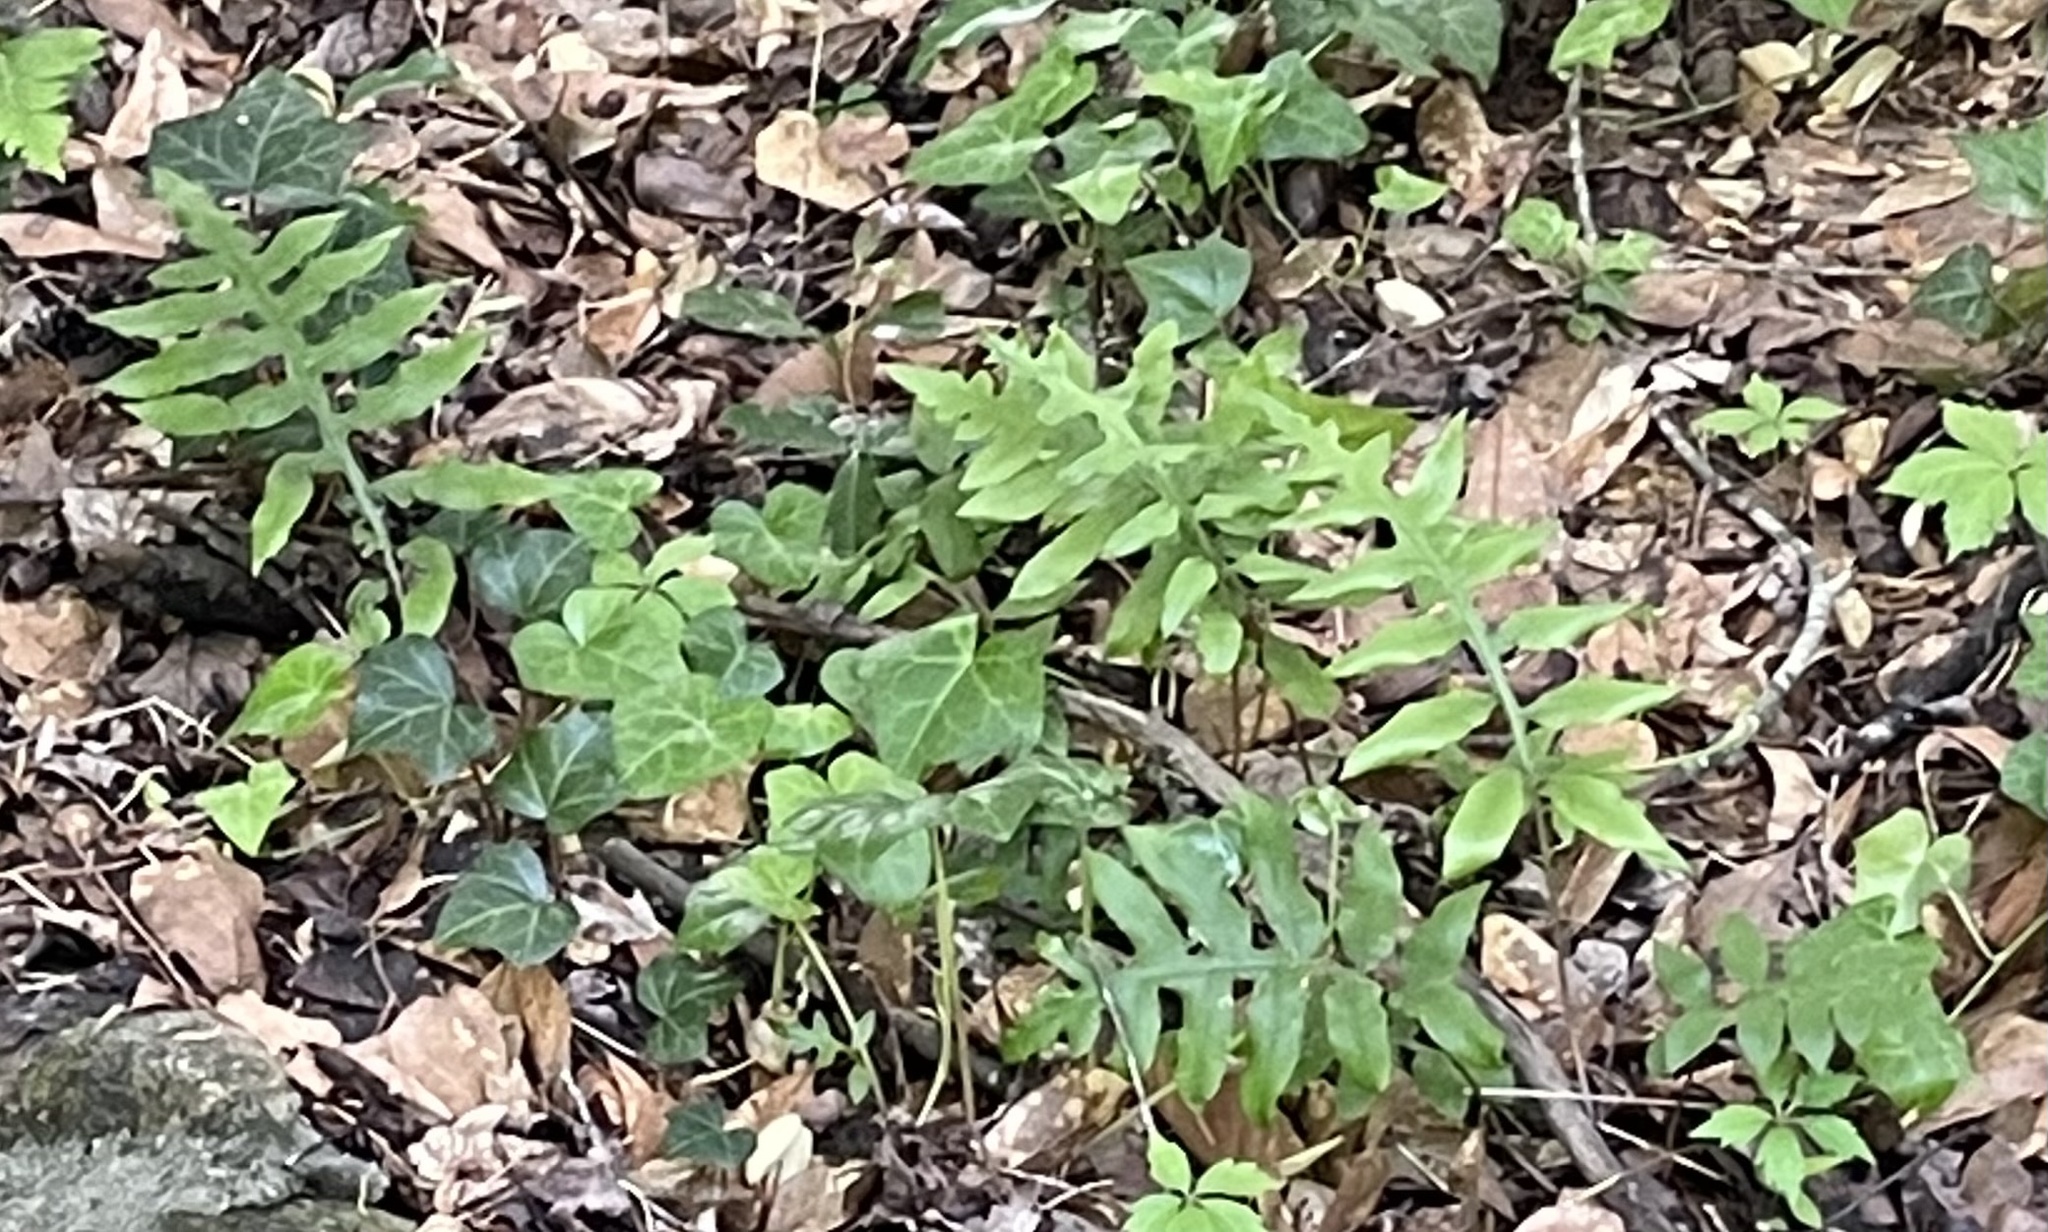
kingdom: Plantae
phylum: Tracheophyta
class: Polypodiopsida
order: Polypodiales
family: Blechnaceae
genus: Lorinseria
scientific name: Lorinseria areolata
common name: Dwarf chain fern
